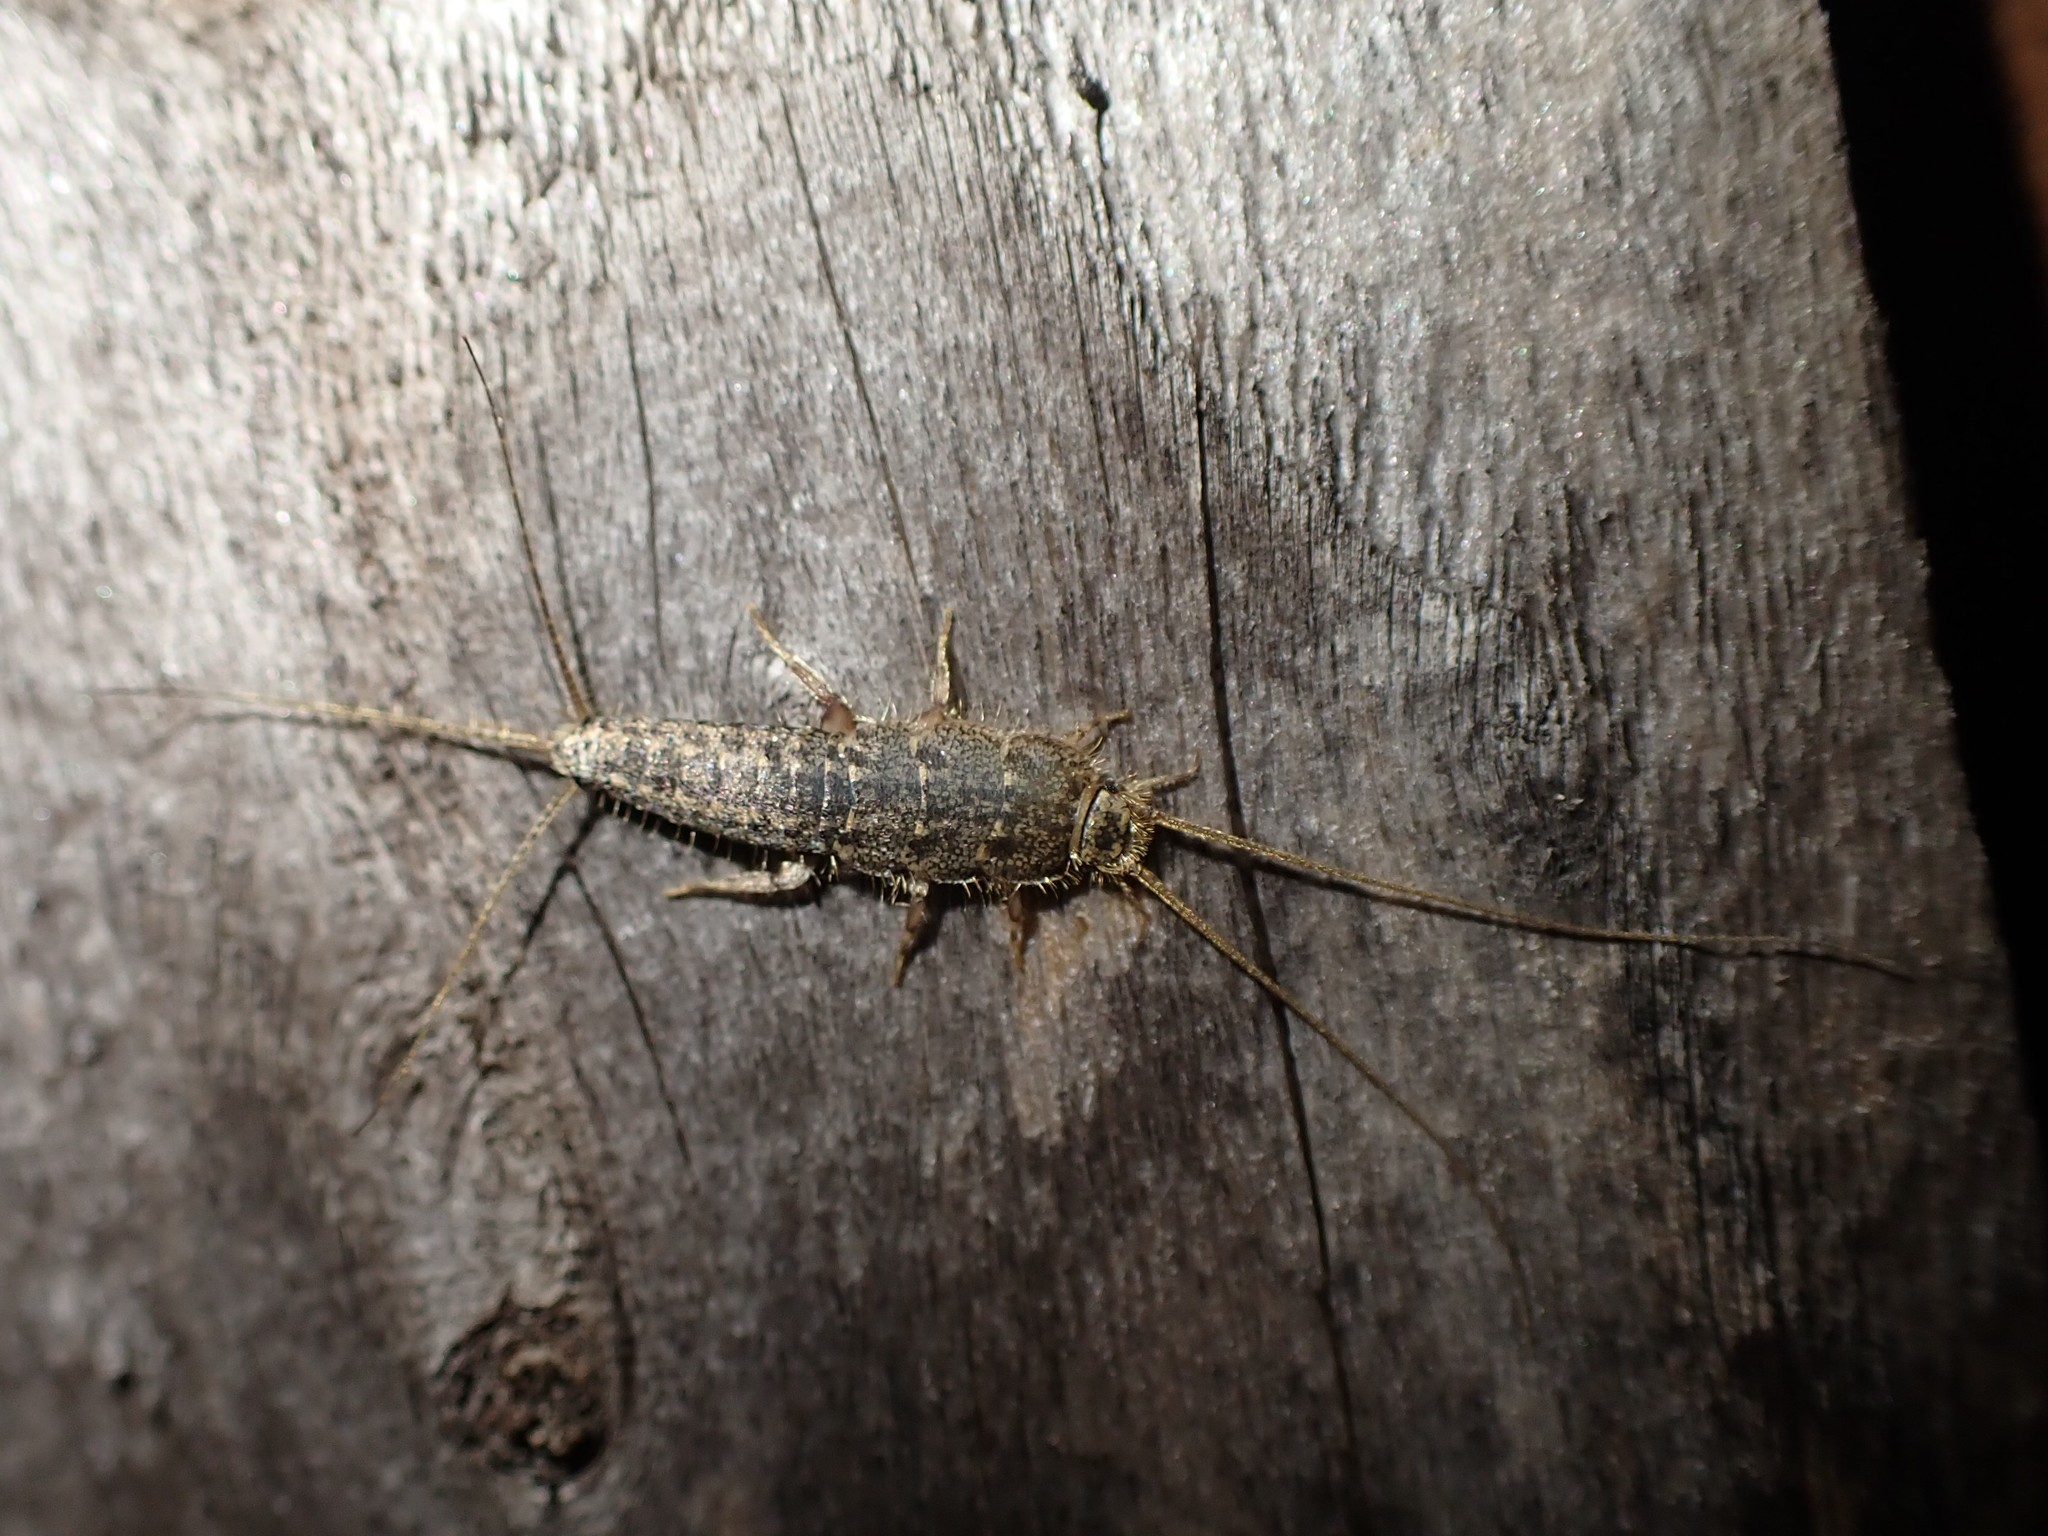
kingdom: Animalia
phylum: Arthropoda
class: Insecta
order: Zygentoma
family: Lepismatidae
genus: Ctenolepisma
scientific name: Ctenolepisma lineata
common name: Four-lined silverfish
